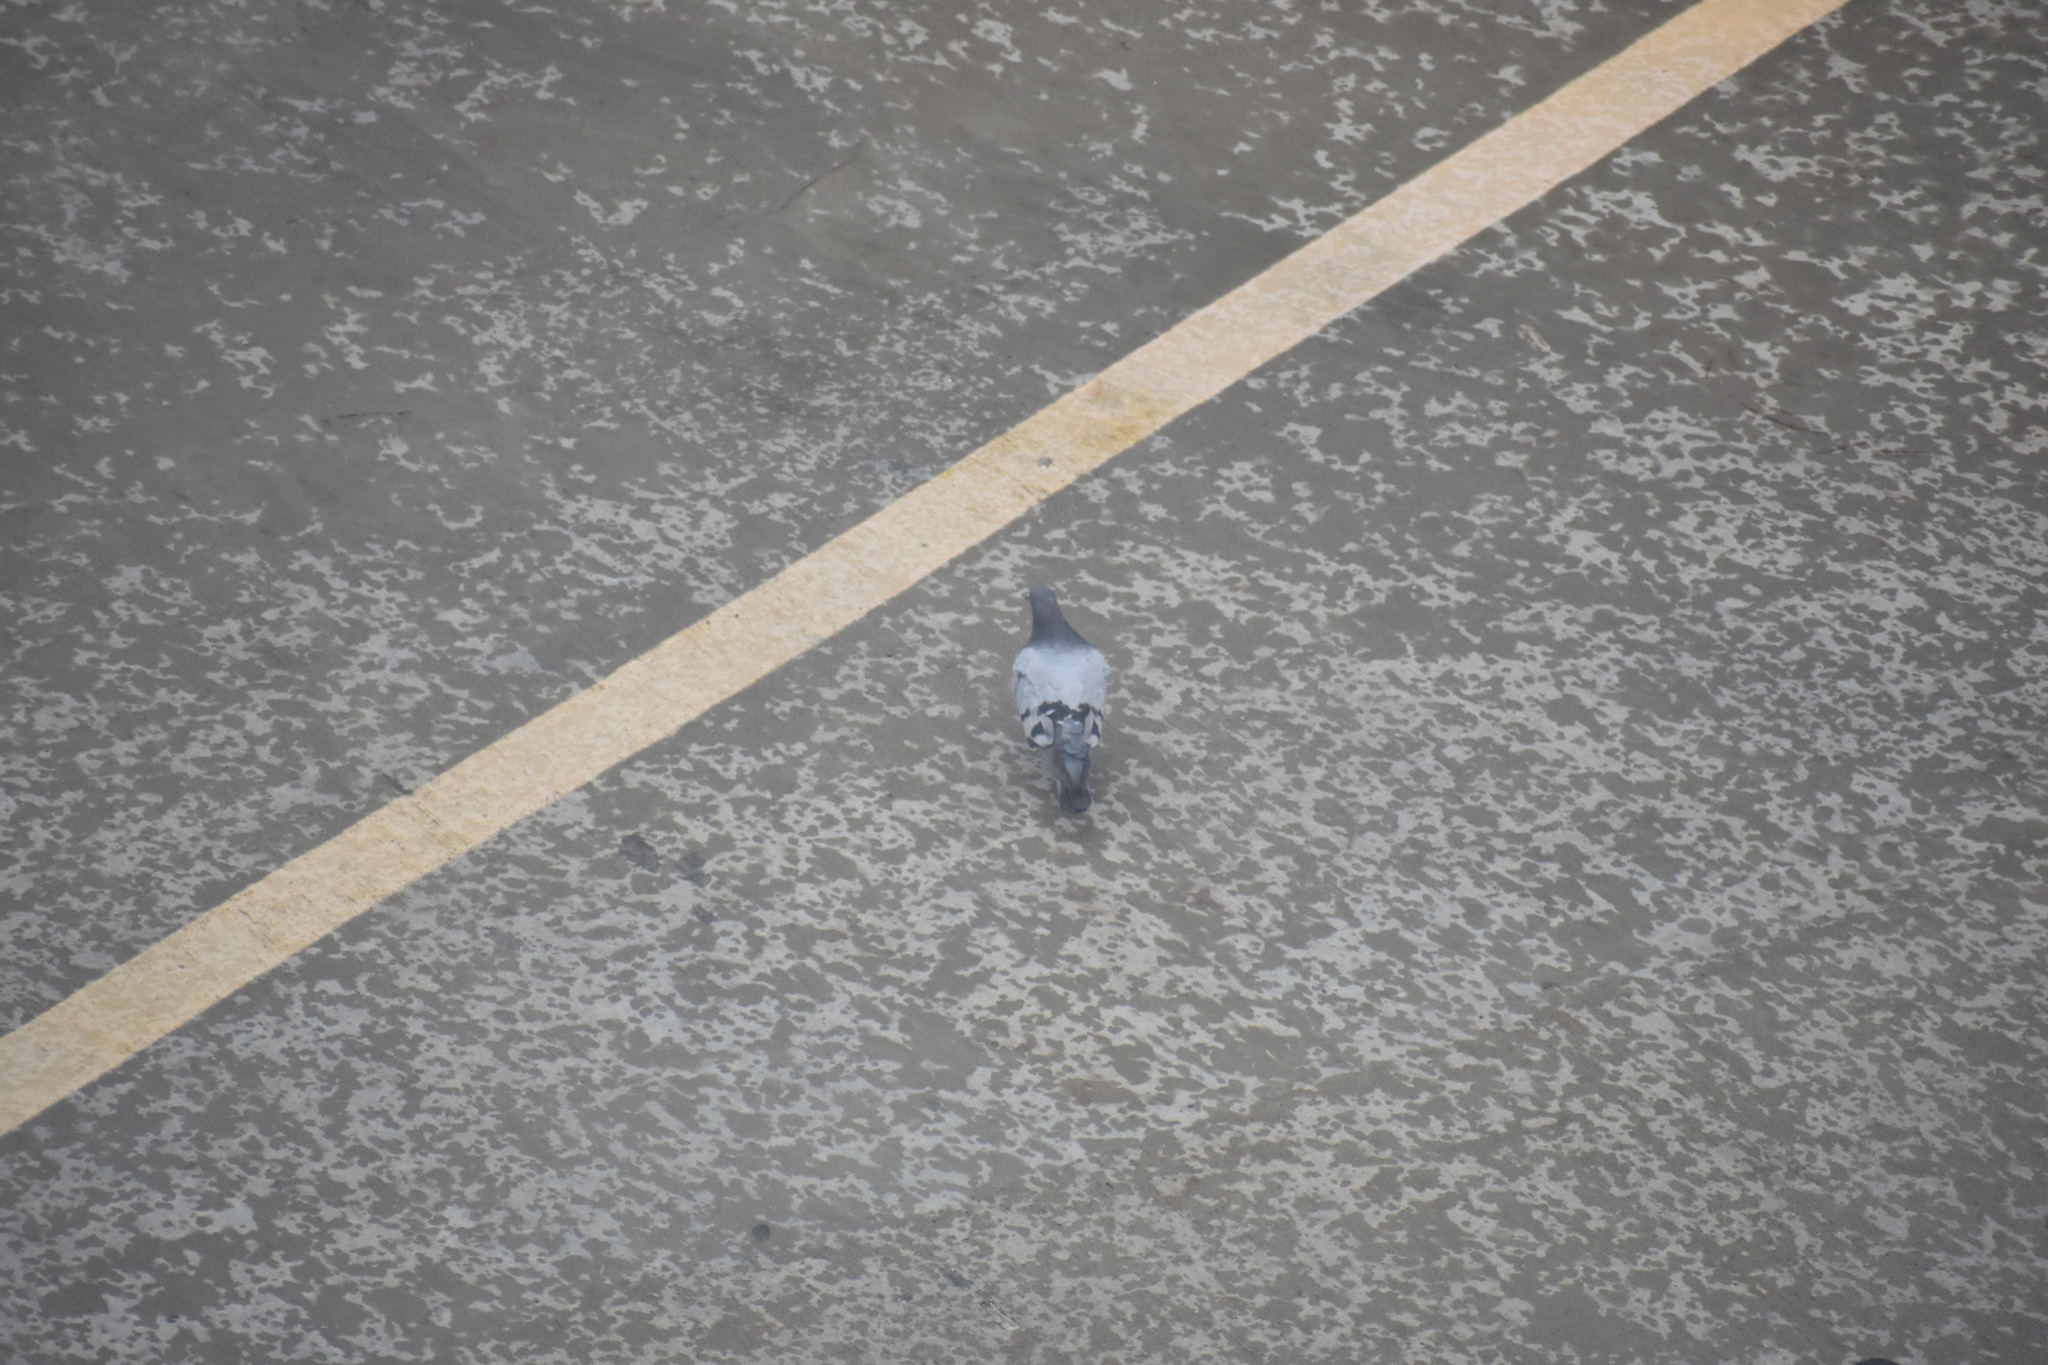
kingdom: Animalia
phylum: Chordata
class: Aves
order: Columbiformes
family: Columbidae
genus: Columba
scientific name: Columba livia
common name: Rock pigeon
